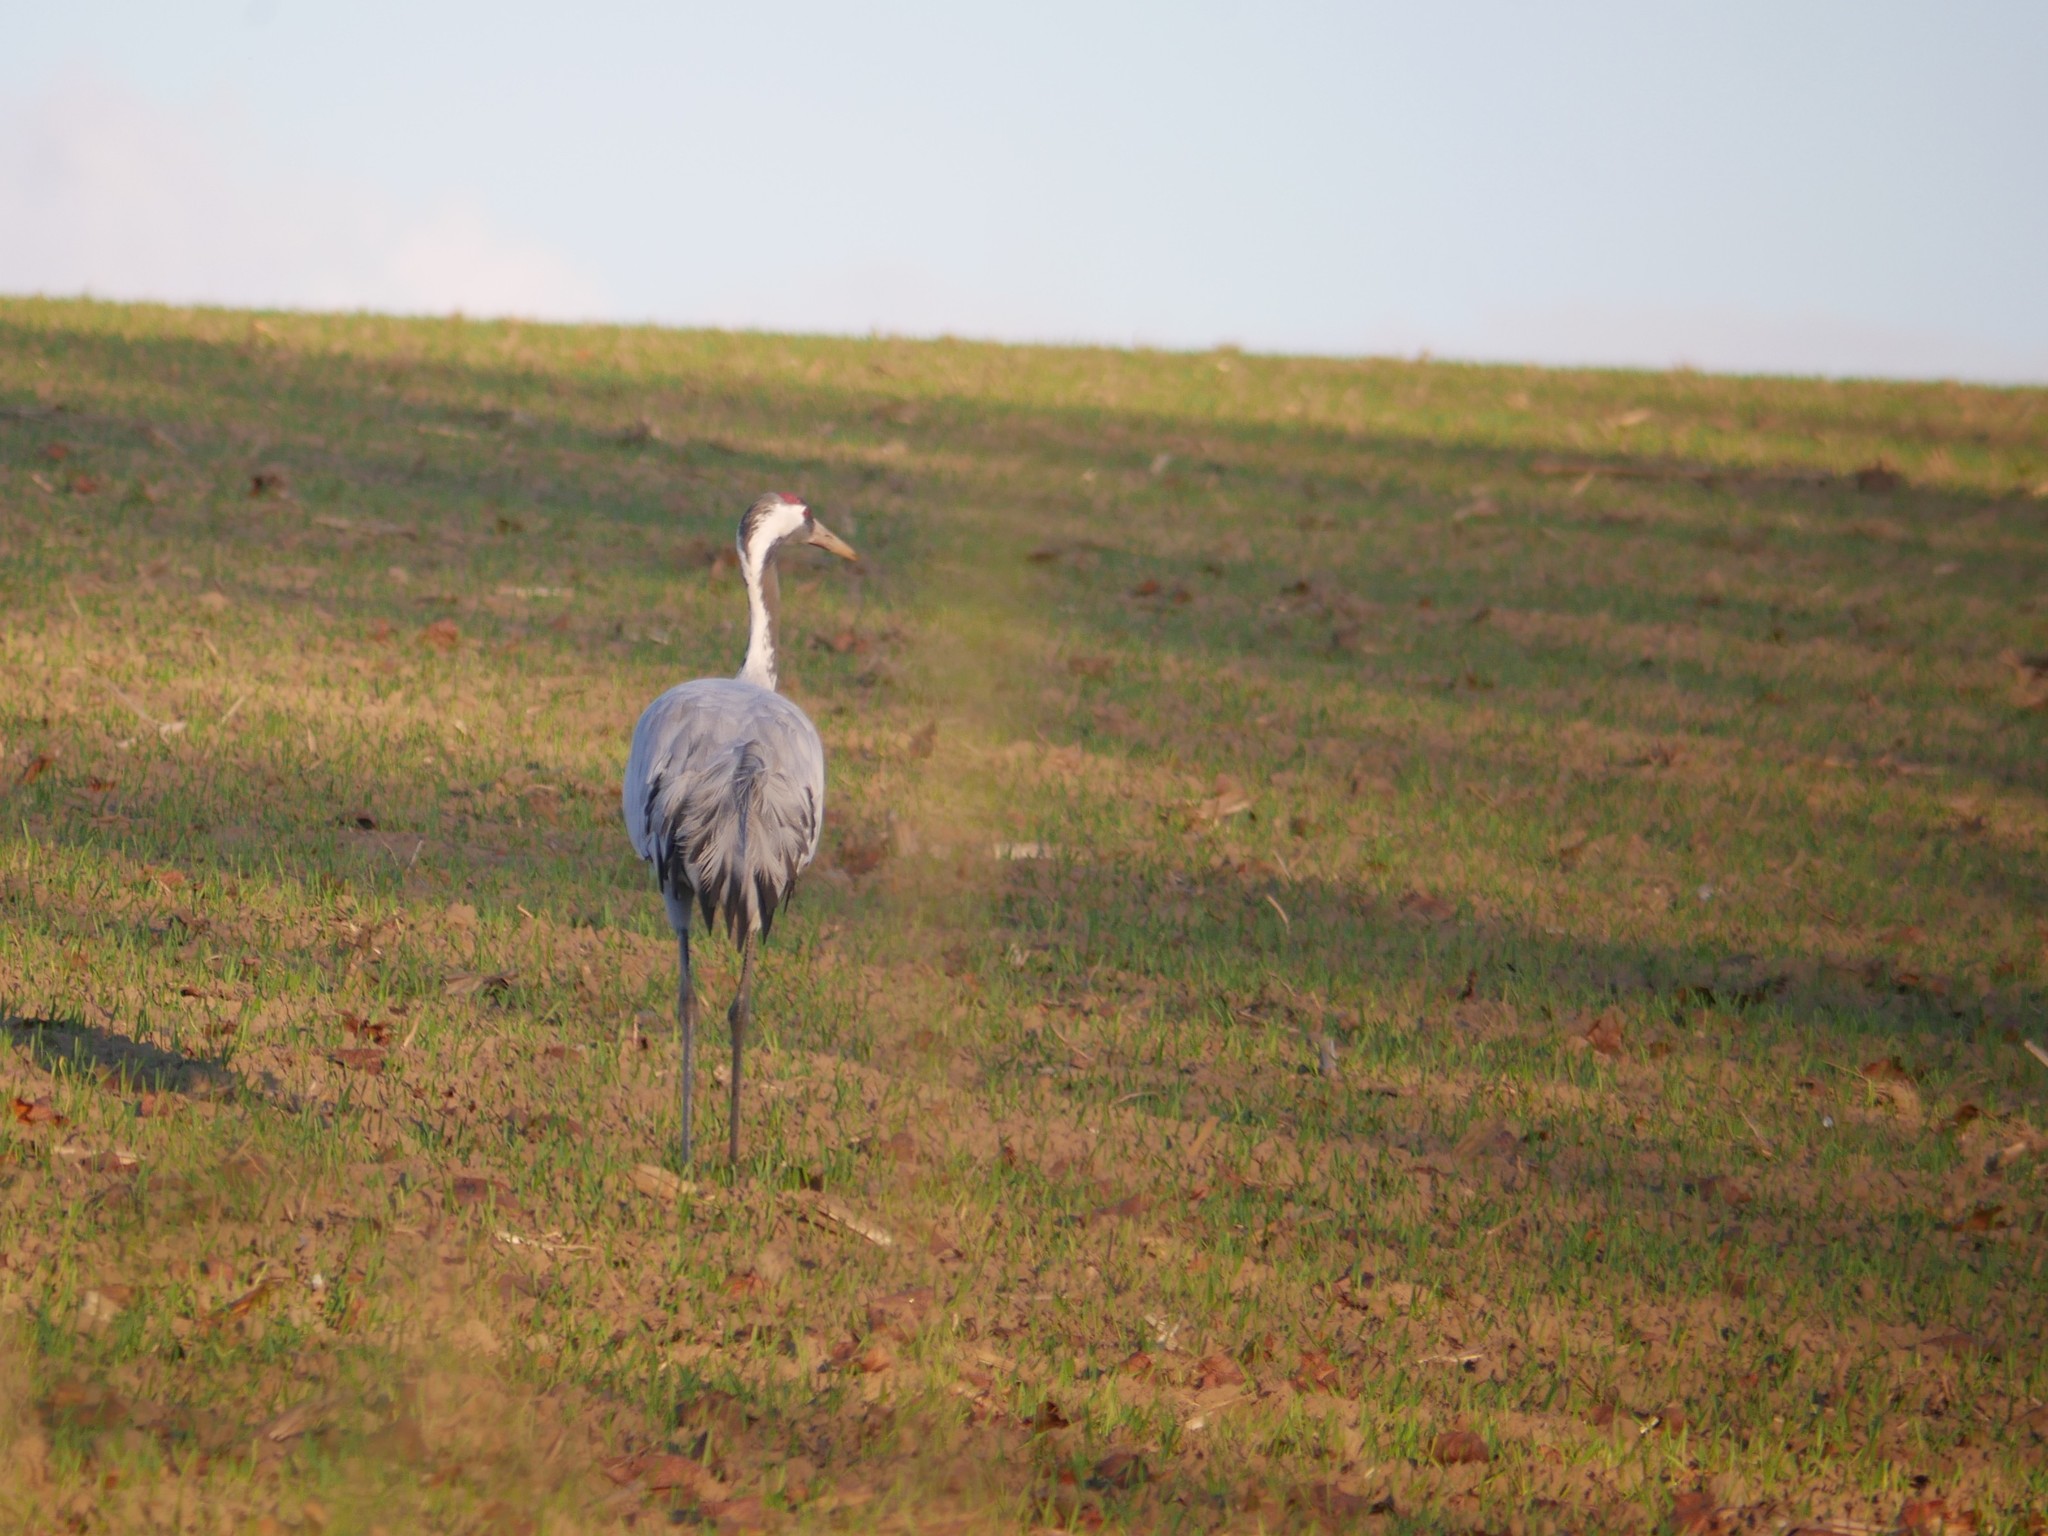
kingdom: Animalia
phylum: Chordata
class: Aves
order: Gruiformes
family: Gruidae
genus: Grus
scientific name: Grus grus
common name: Common crane
